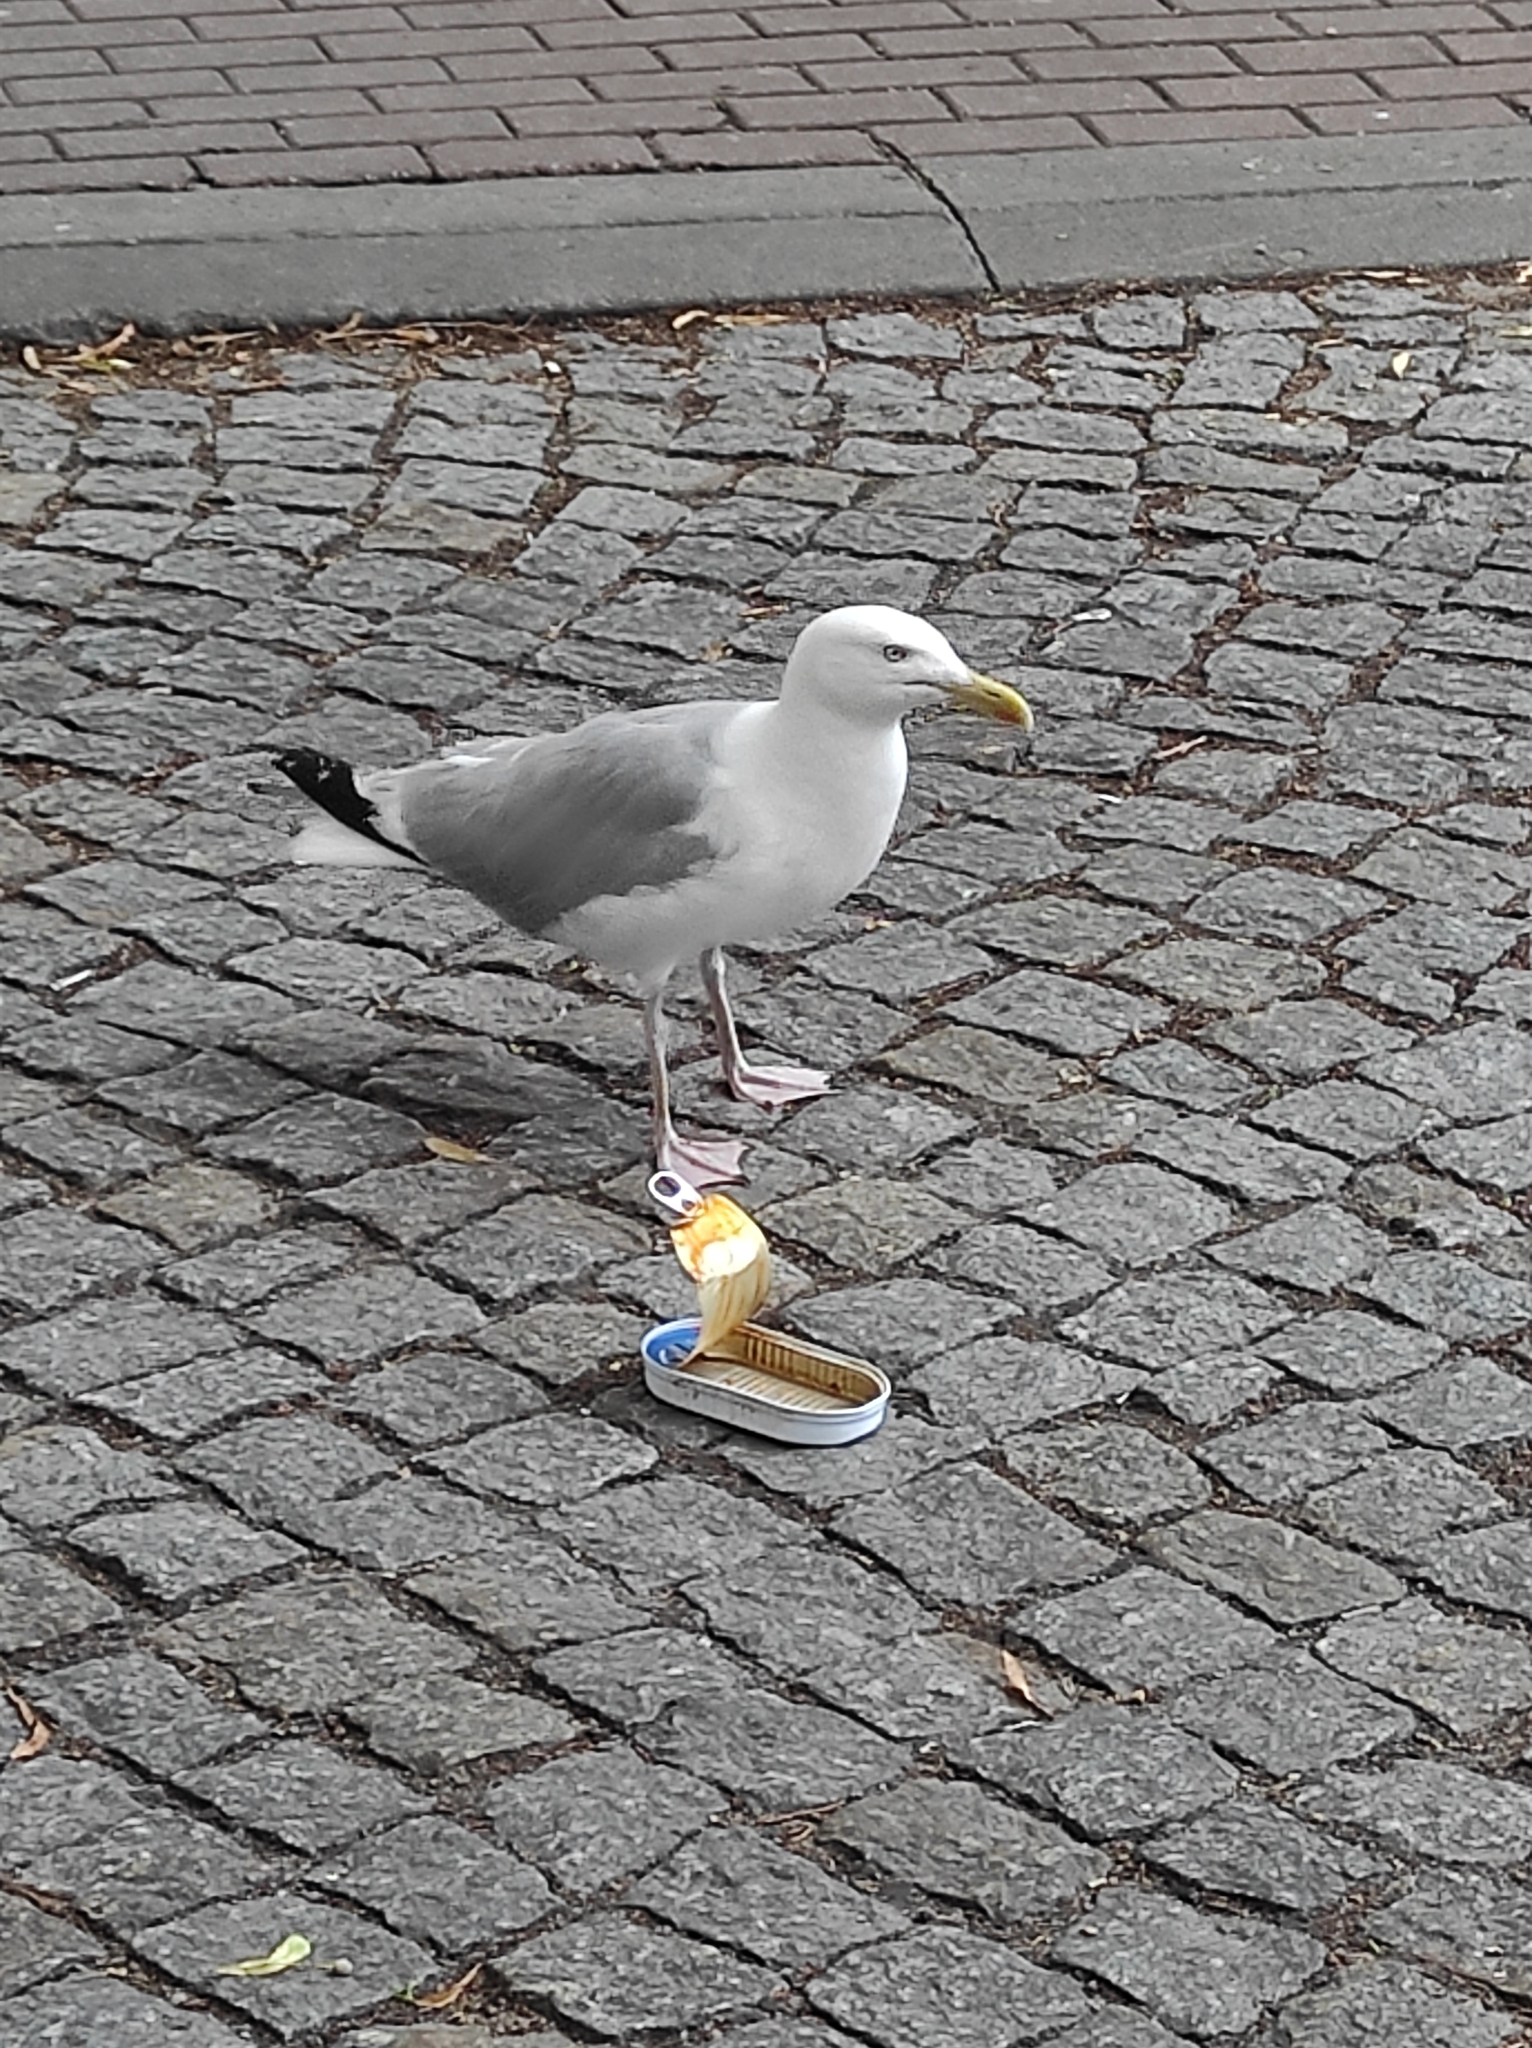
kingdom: Animalia
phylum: Chordata
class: Aves
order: Charadriiformes
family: Laridae
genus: Larus
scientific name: Larus argentatus
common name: Herring gull
